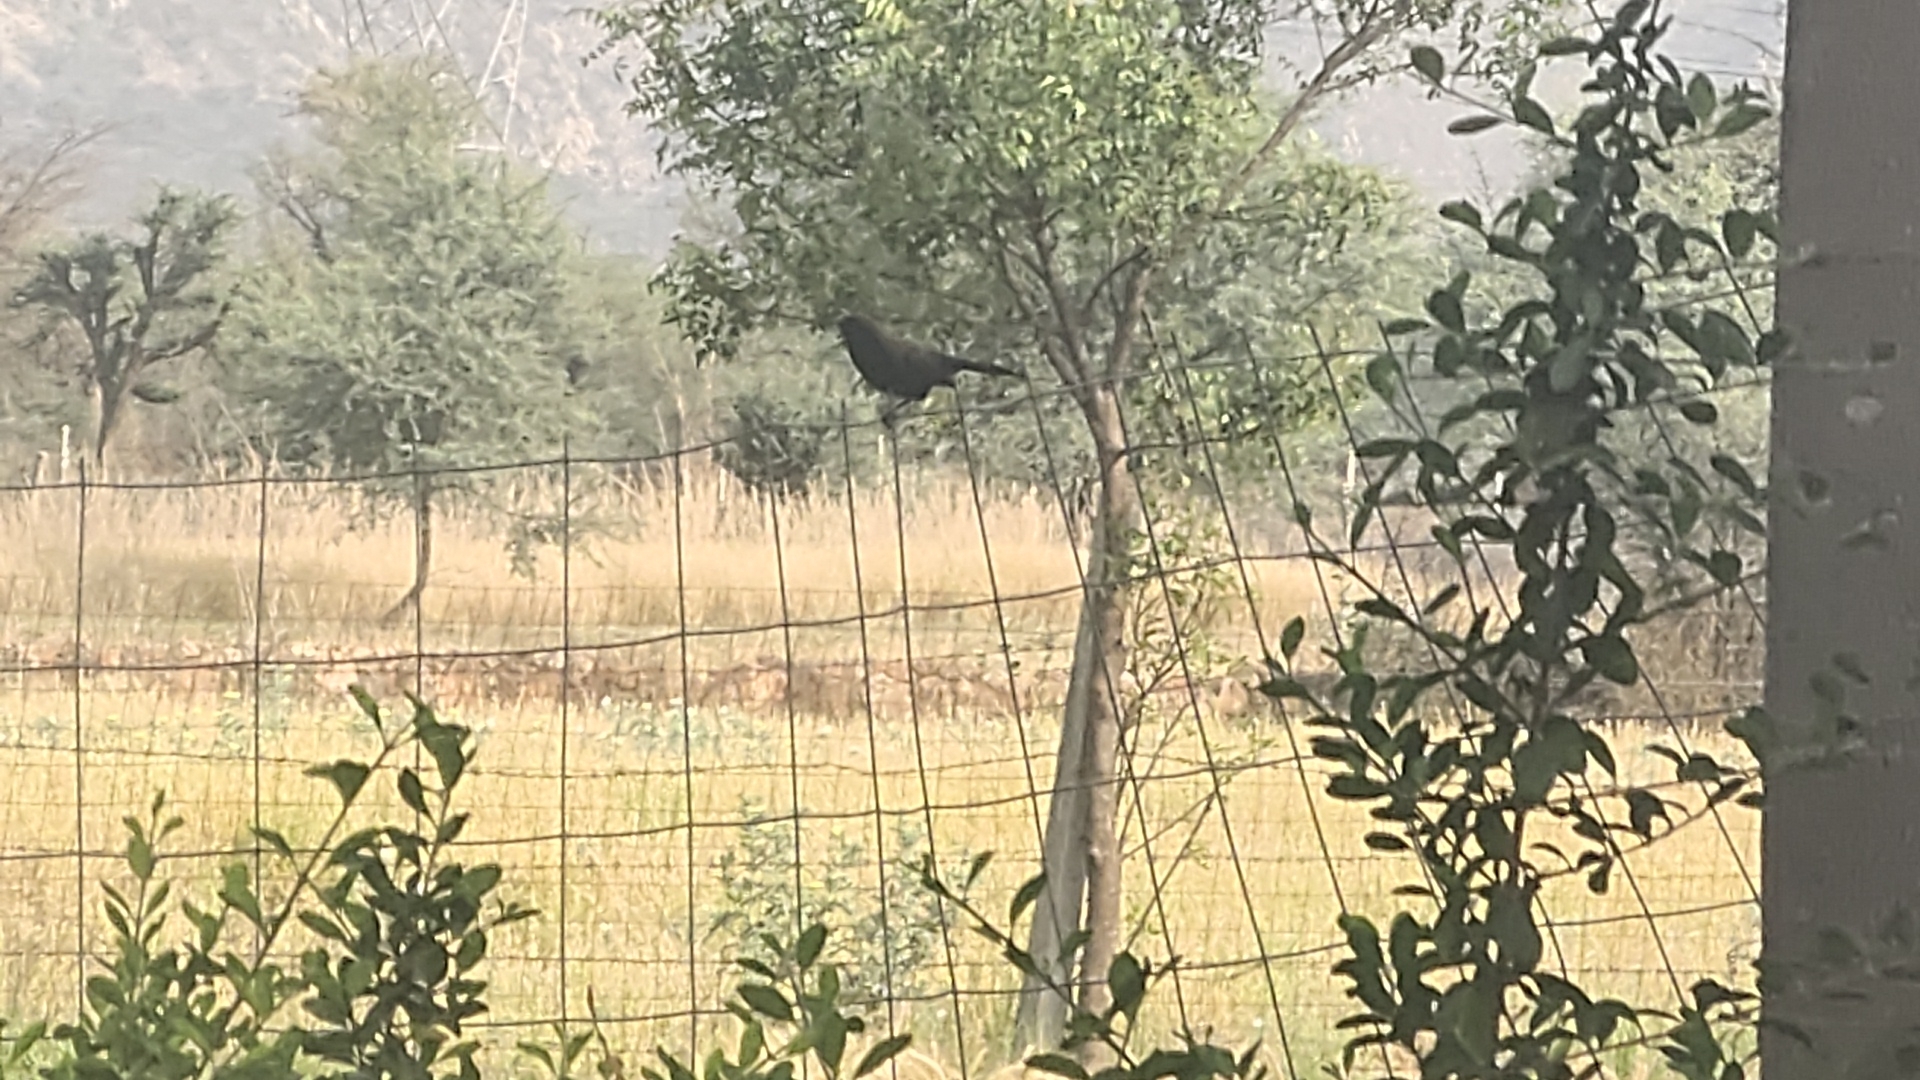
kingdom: Animalia
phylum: Chordata
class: Aves
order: Passeriformes
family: Muscicapidae
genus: Saxicoloides
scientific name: Saxicoloides fulicatus
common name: Indian robin
